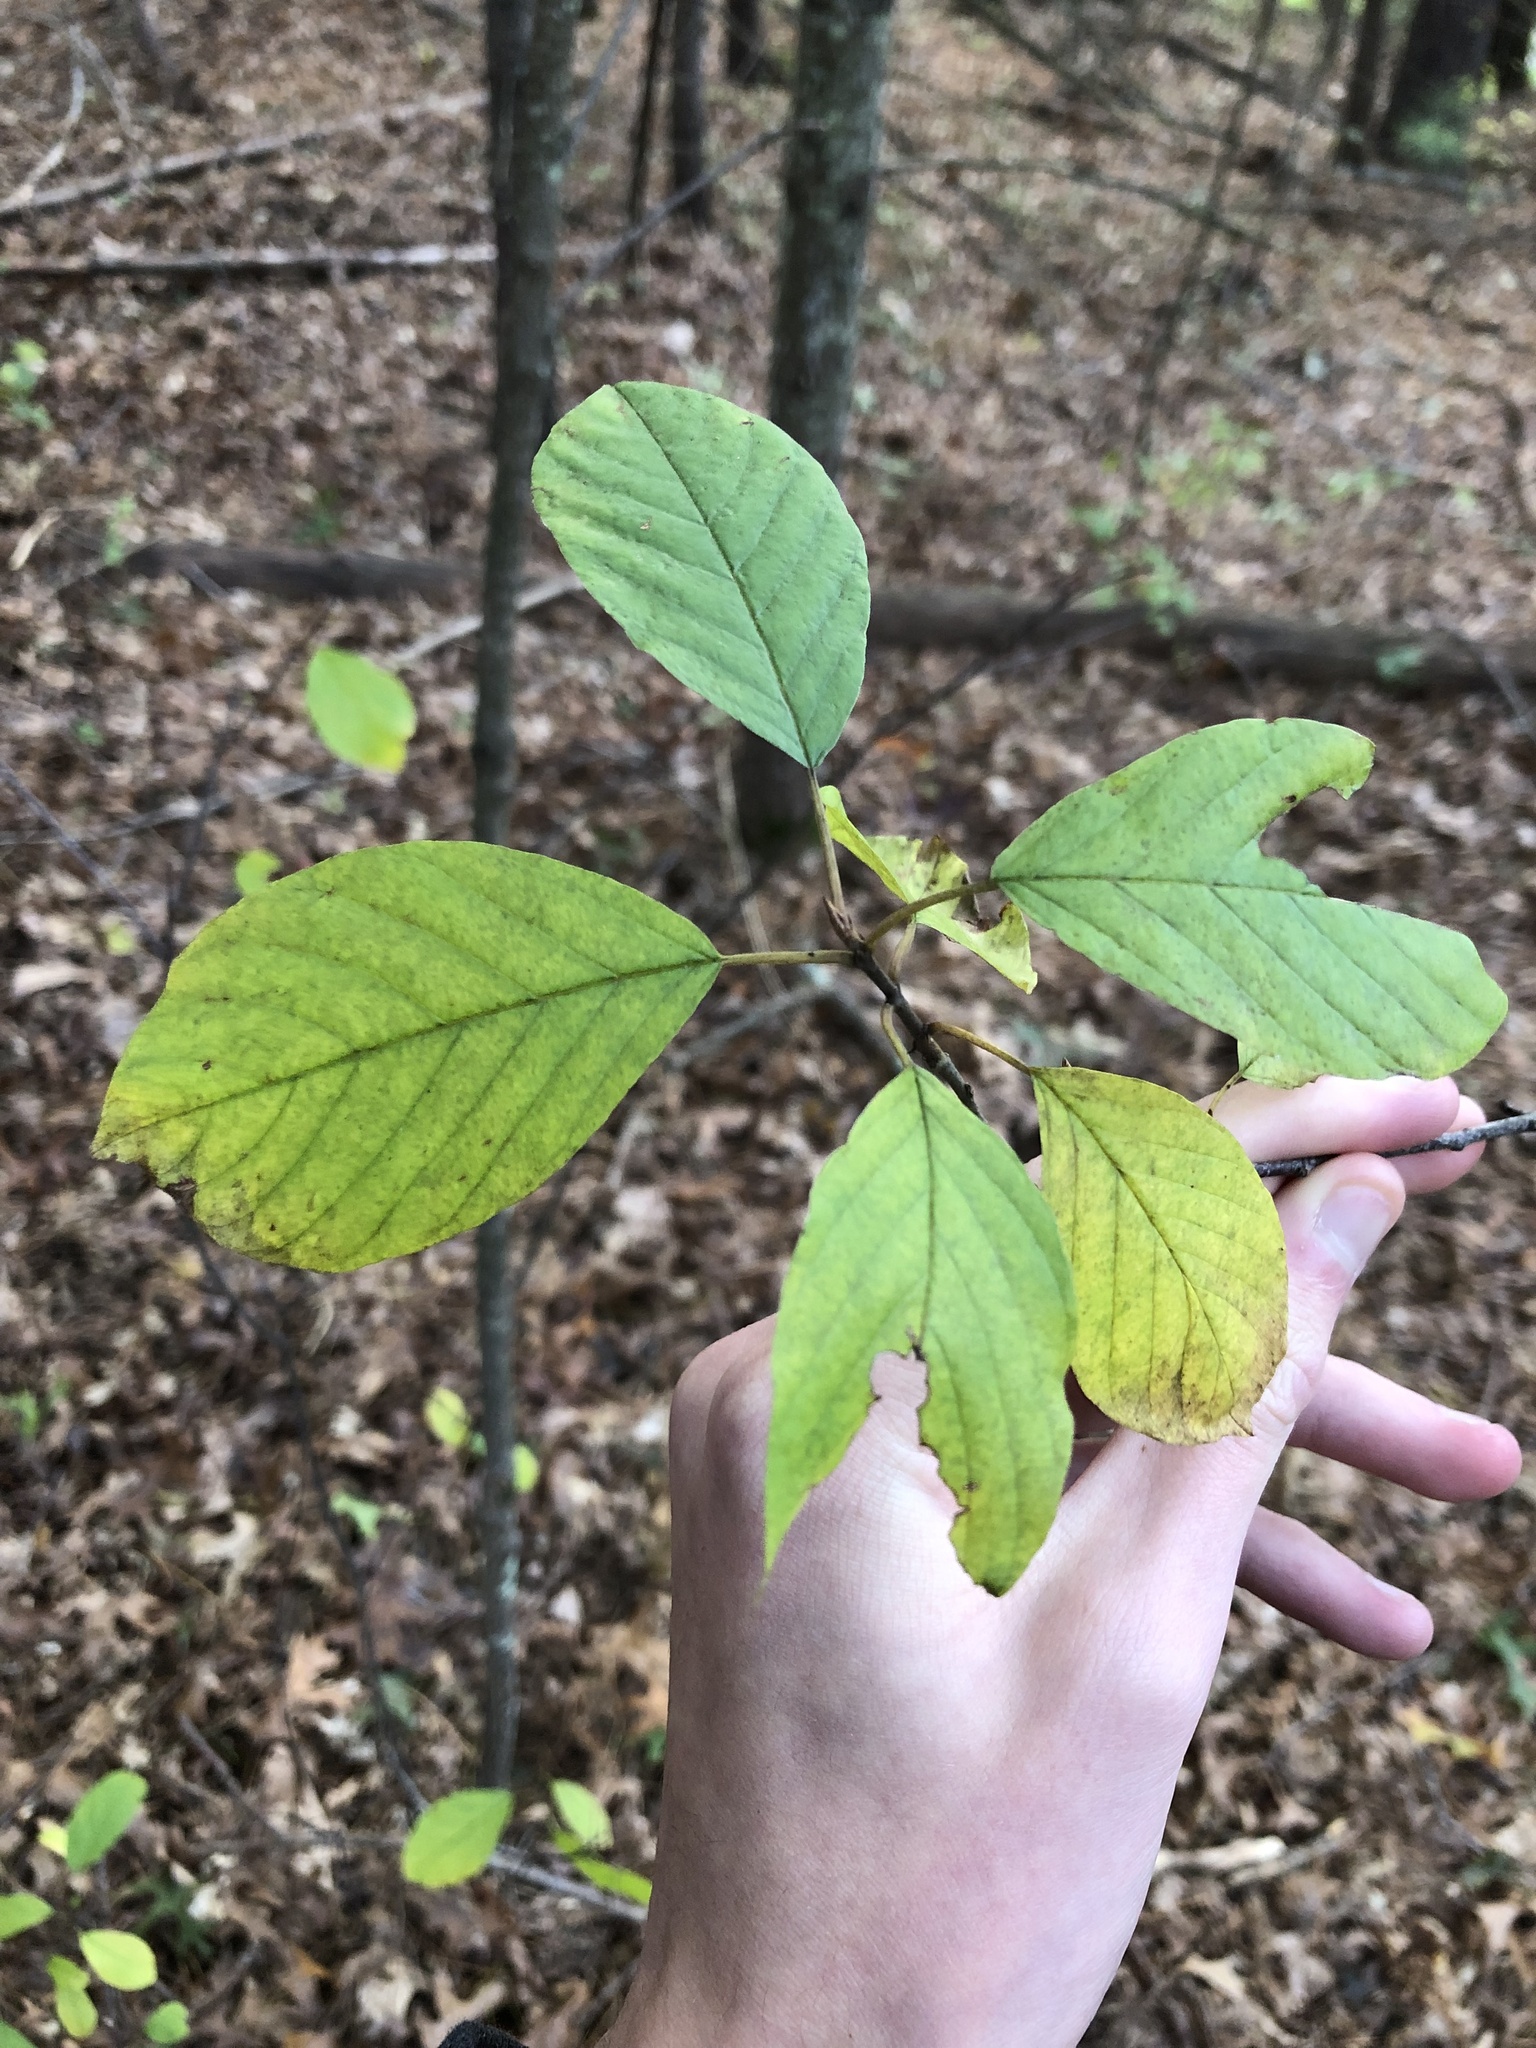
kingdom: Plantae
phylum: Tracheophyta
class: Magnoliopsida
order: Rosales
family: Rhamnaceae
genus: Frangula
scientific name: Frangula alnus
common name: Alder buckthorn
